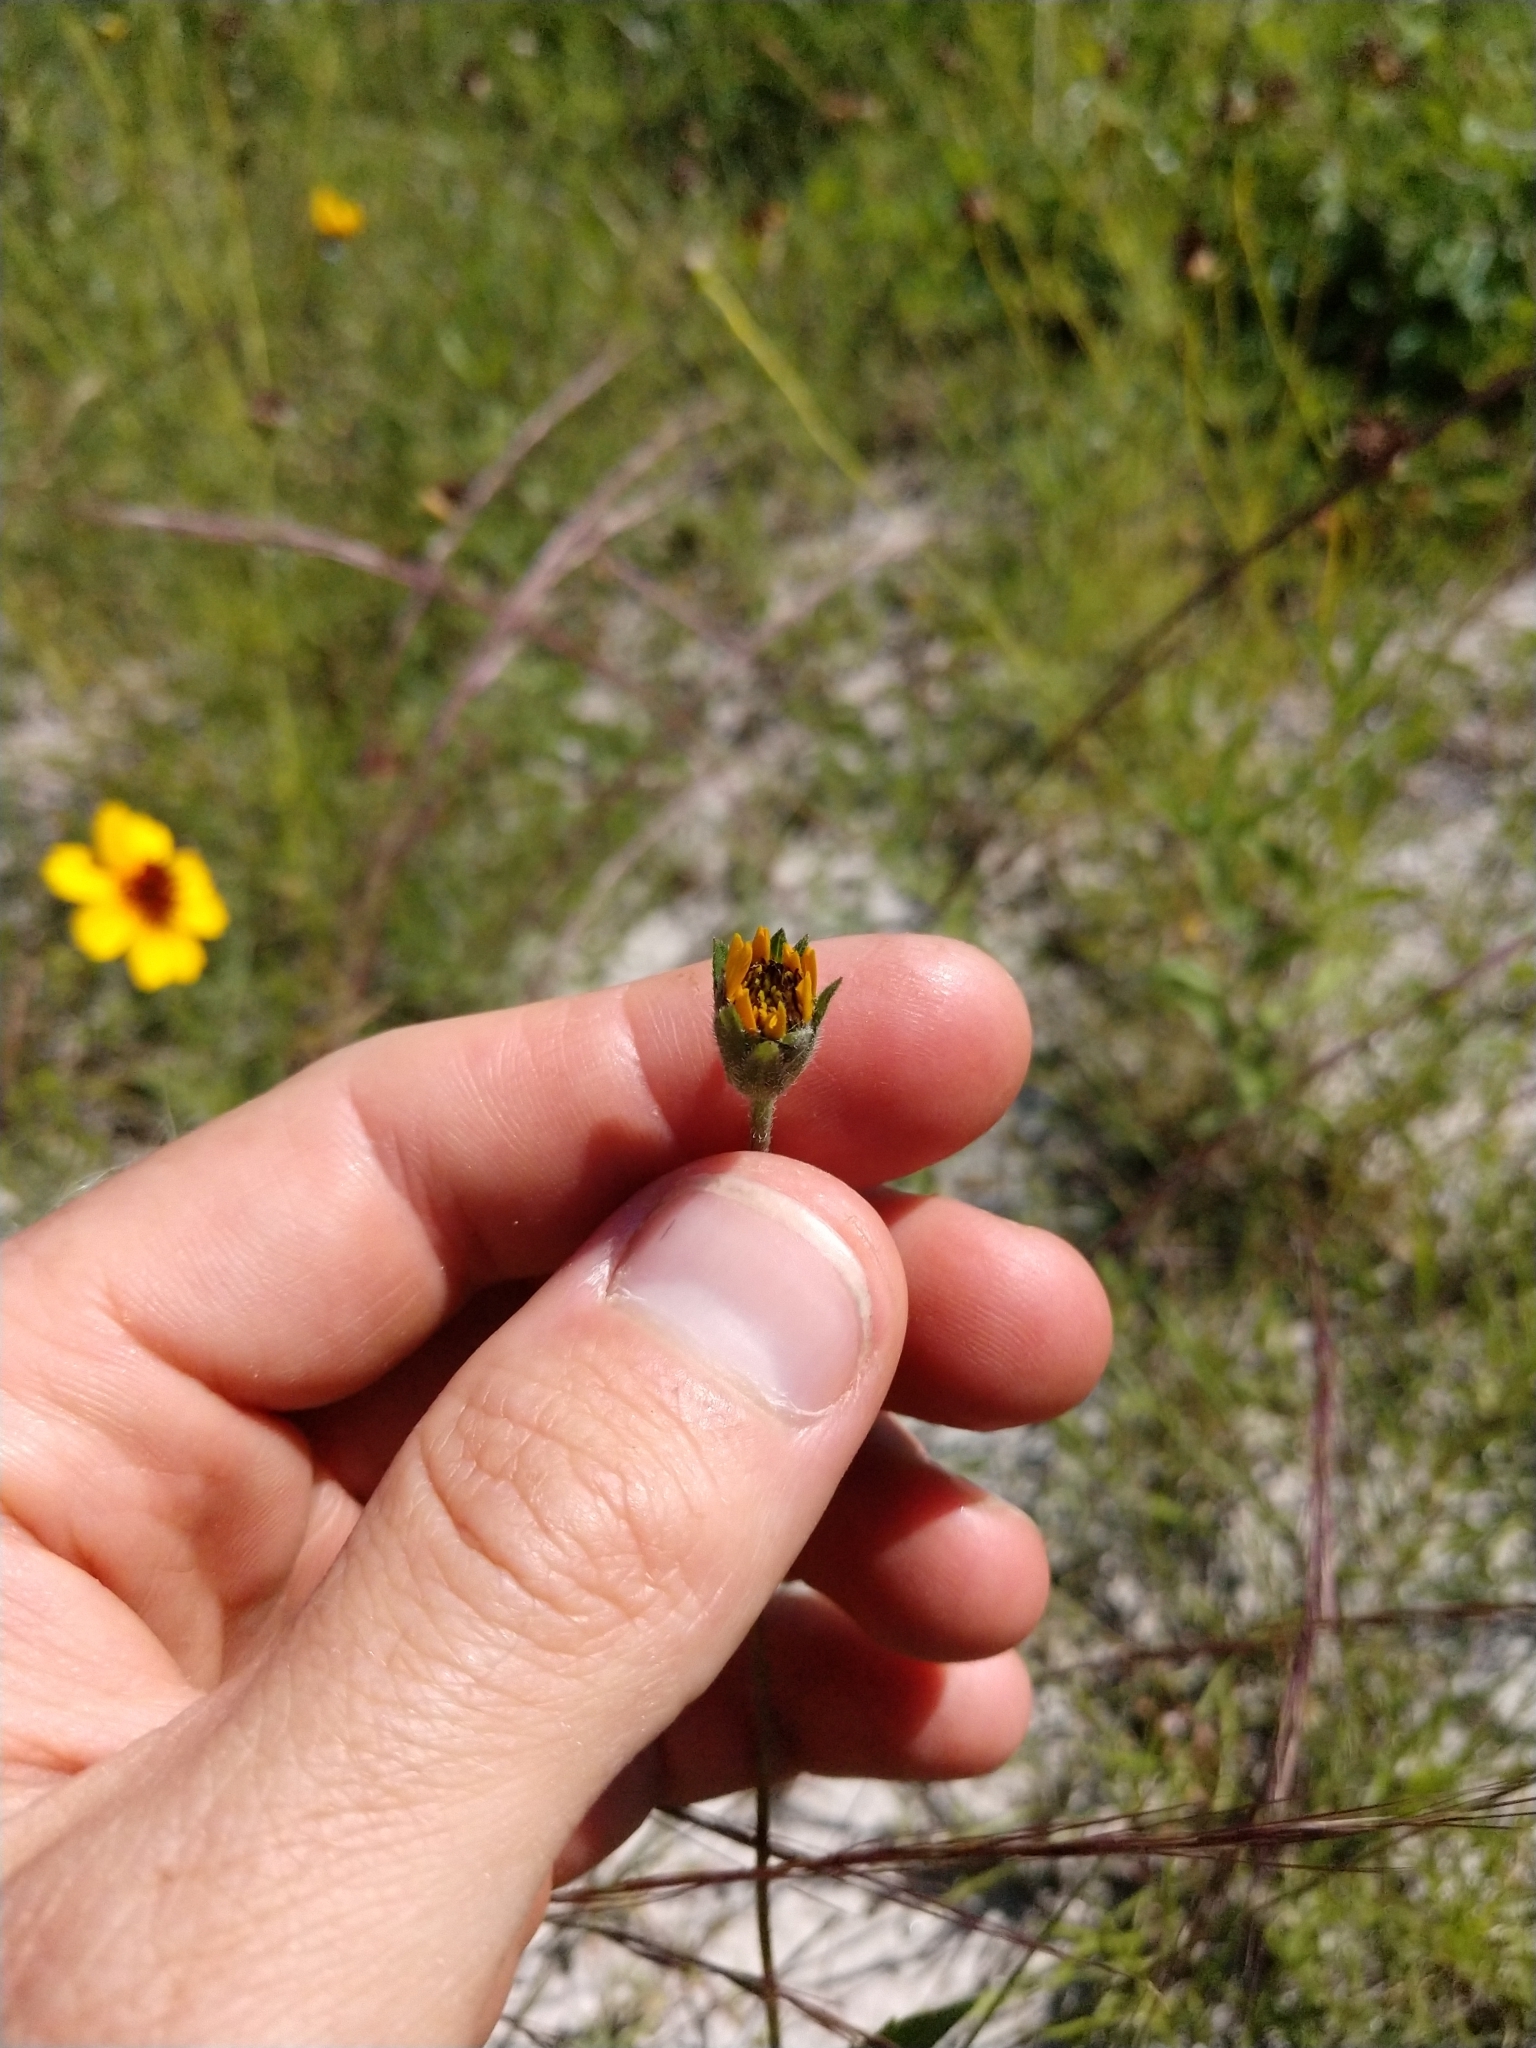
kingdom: Plantae
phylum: Tracheophyta
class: Magnoliopsida
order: Asterales
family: Asteraceae
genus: Wedelia
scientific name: Wedelia acapulcensis
